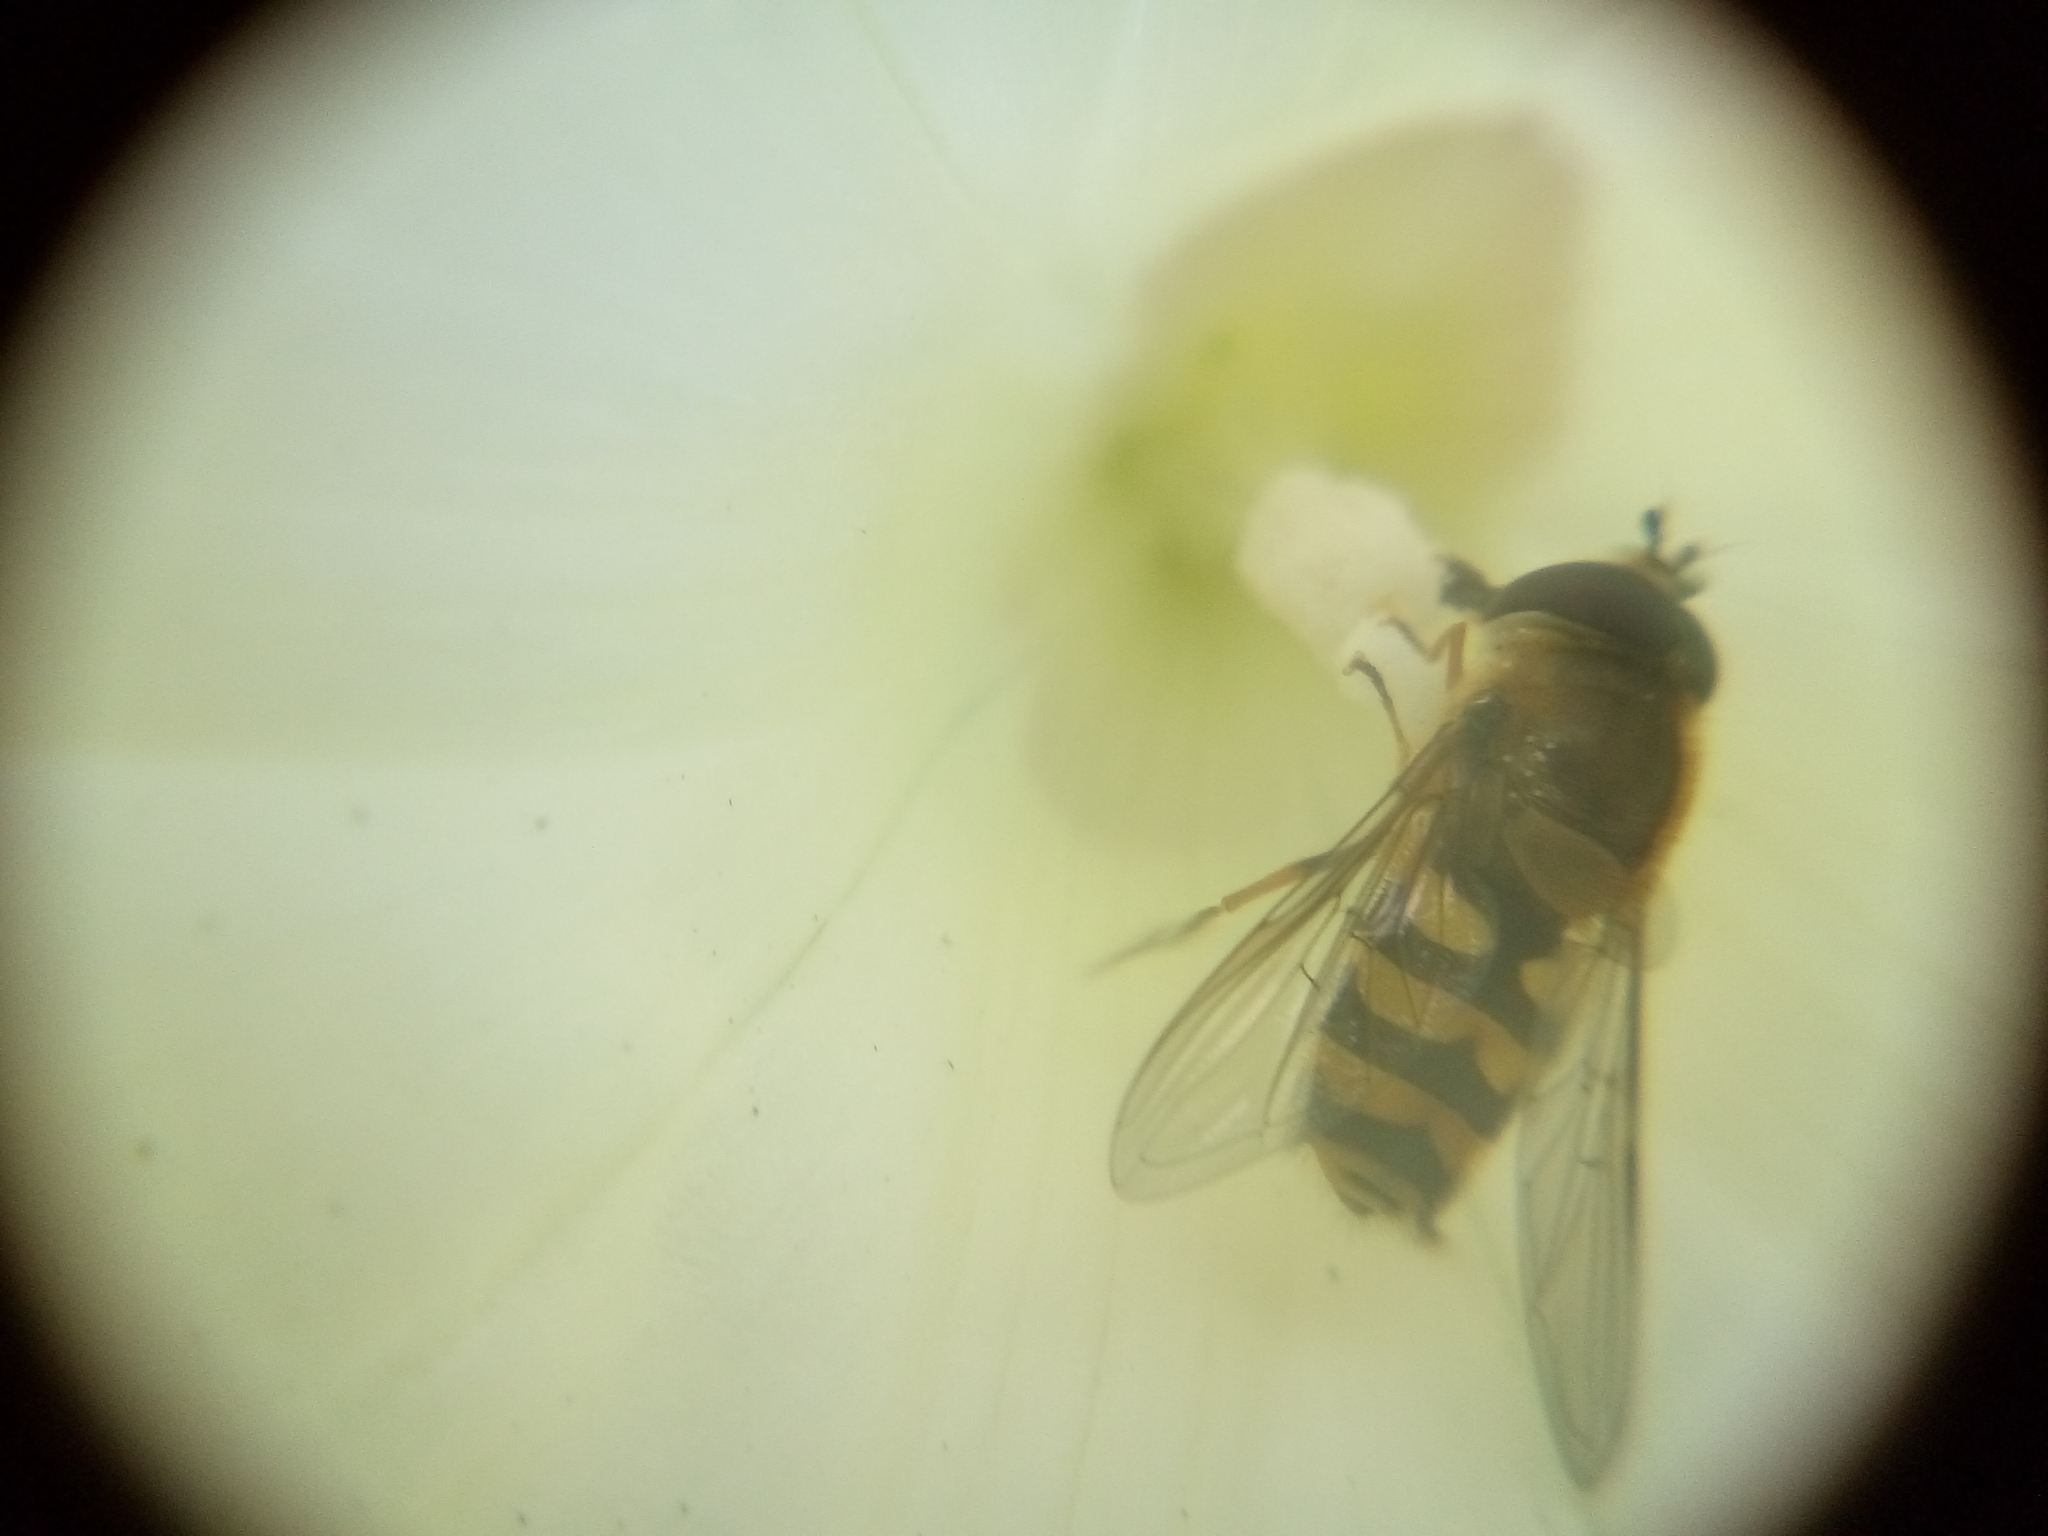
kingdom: Animalia
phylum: Arthropoda
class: Insecta
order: Diptera
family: Syrphidae
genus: Syrphus
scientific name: Syrphus
